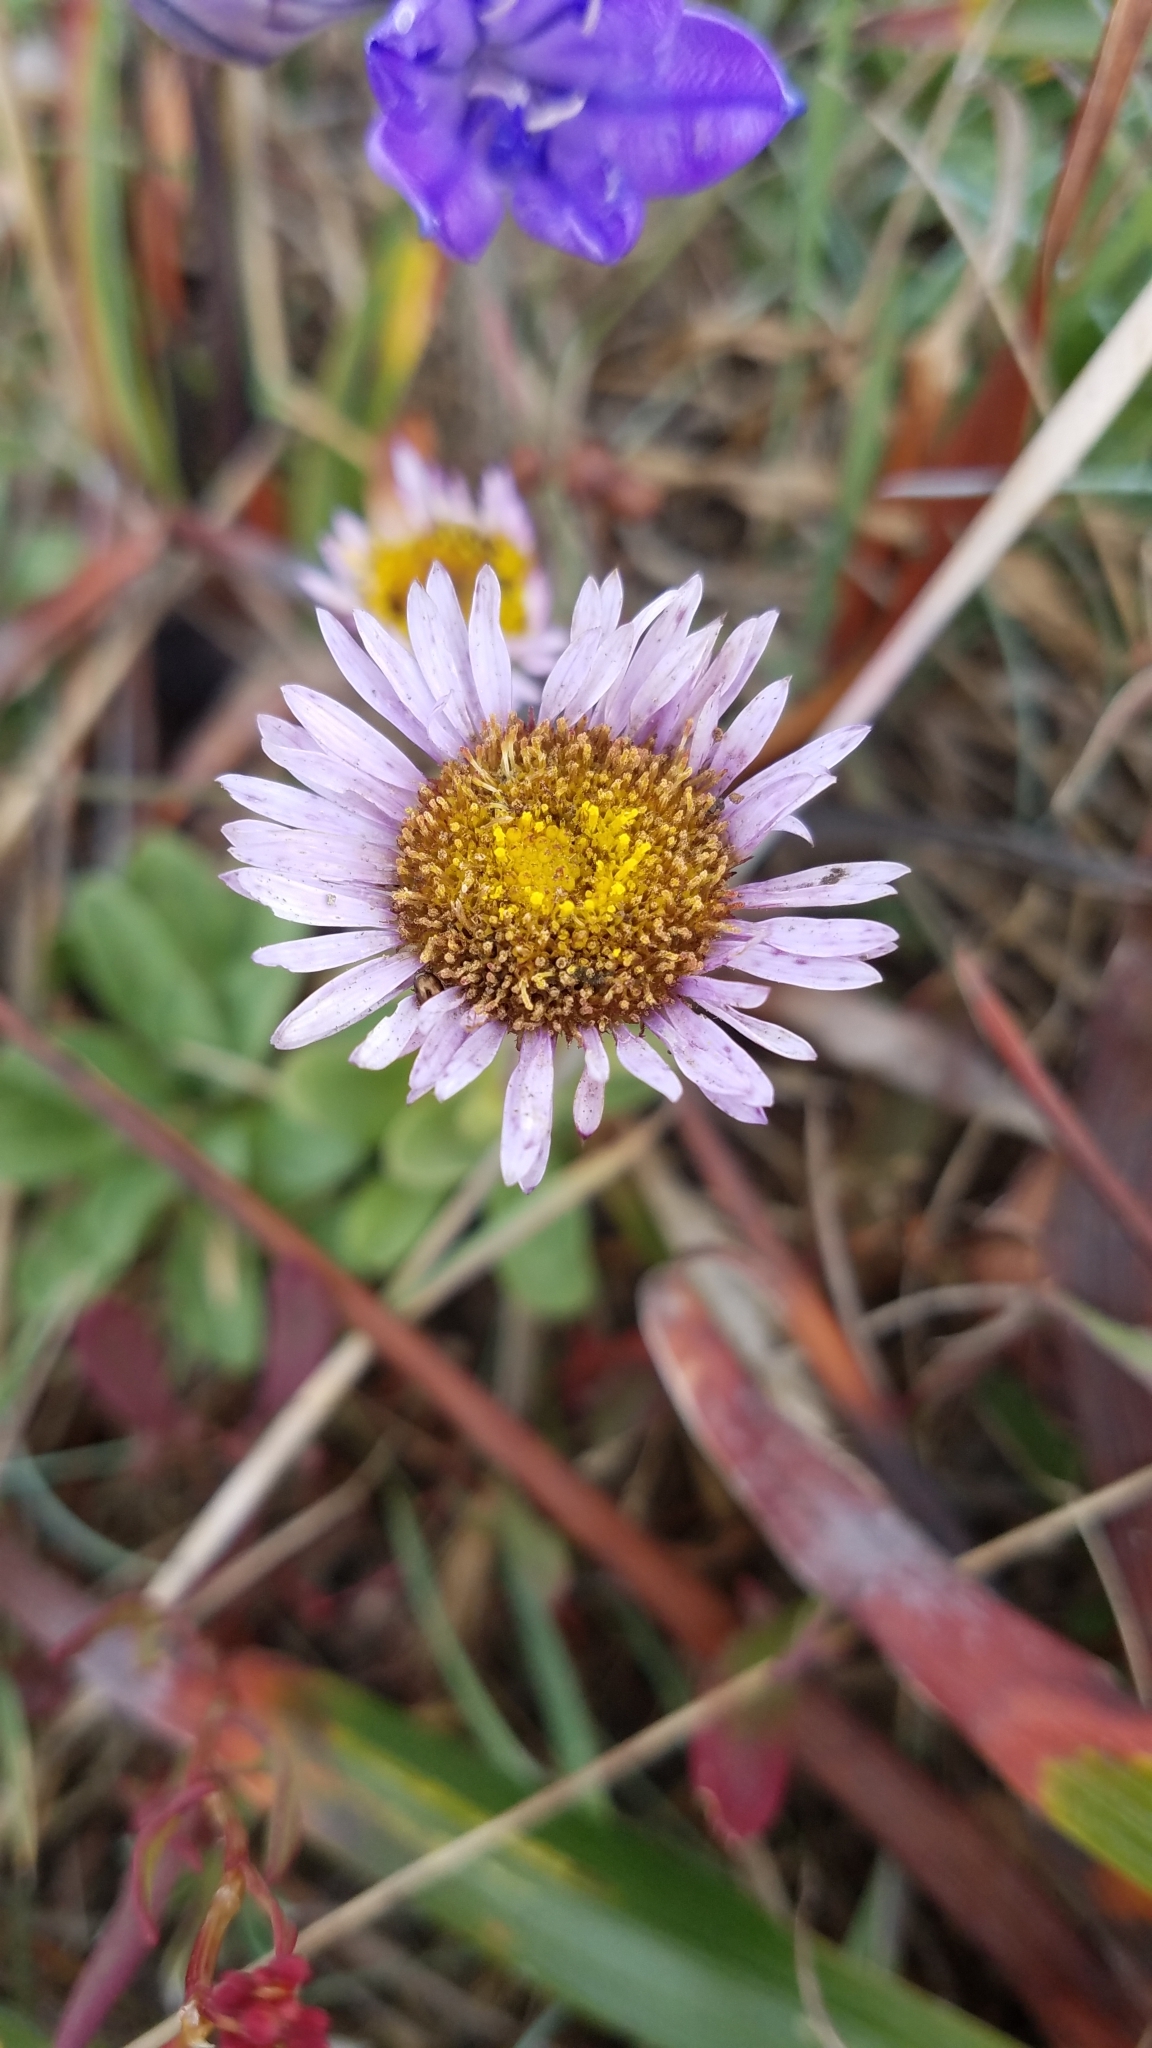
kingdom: Plantae
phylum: Tracheophyta
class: Magnoliopsida
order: Asterales
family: Asteraceae
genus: Erigeron
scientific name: Erigeron glaucus
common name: Seaside daisy
